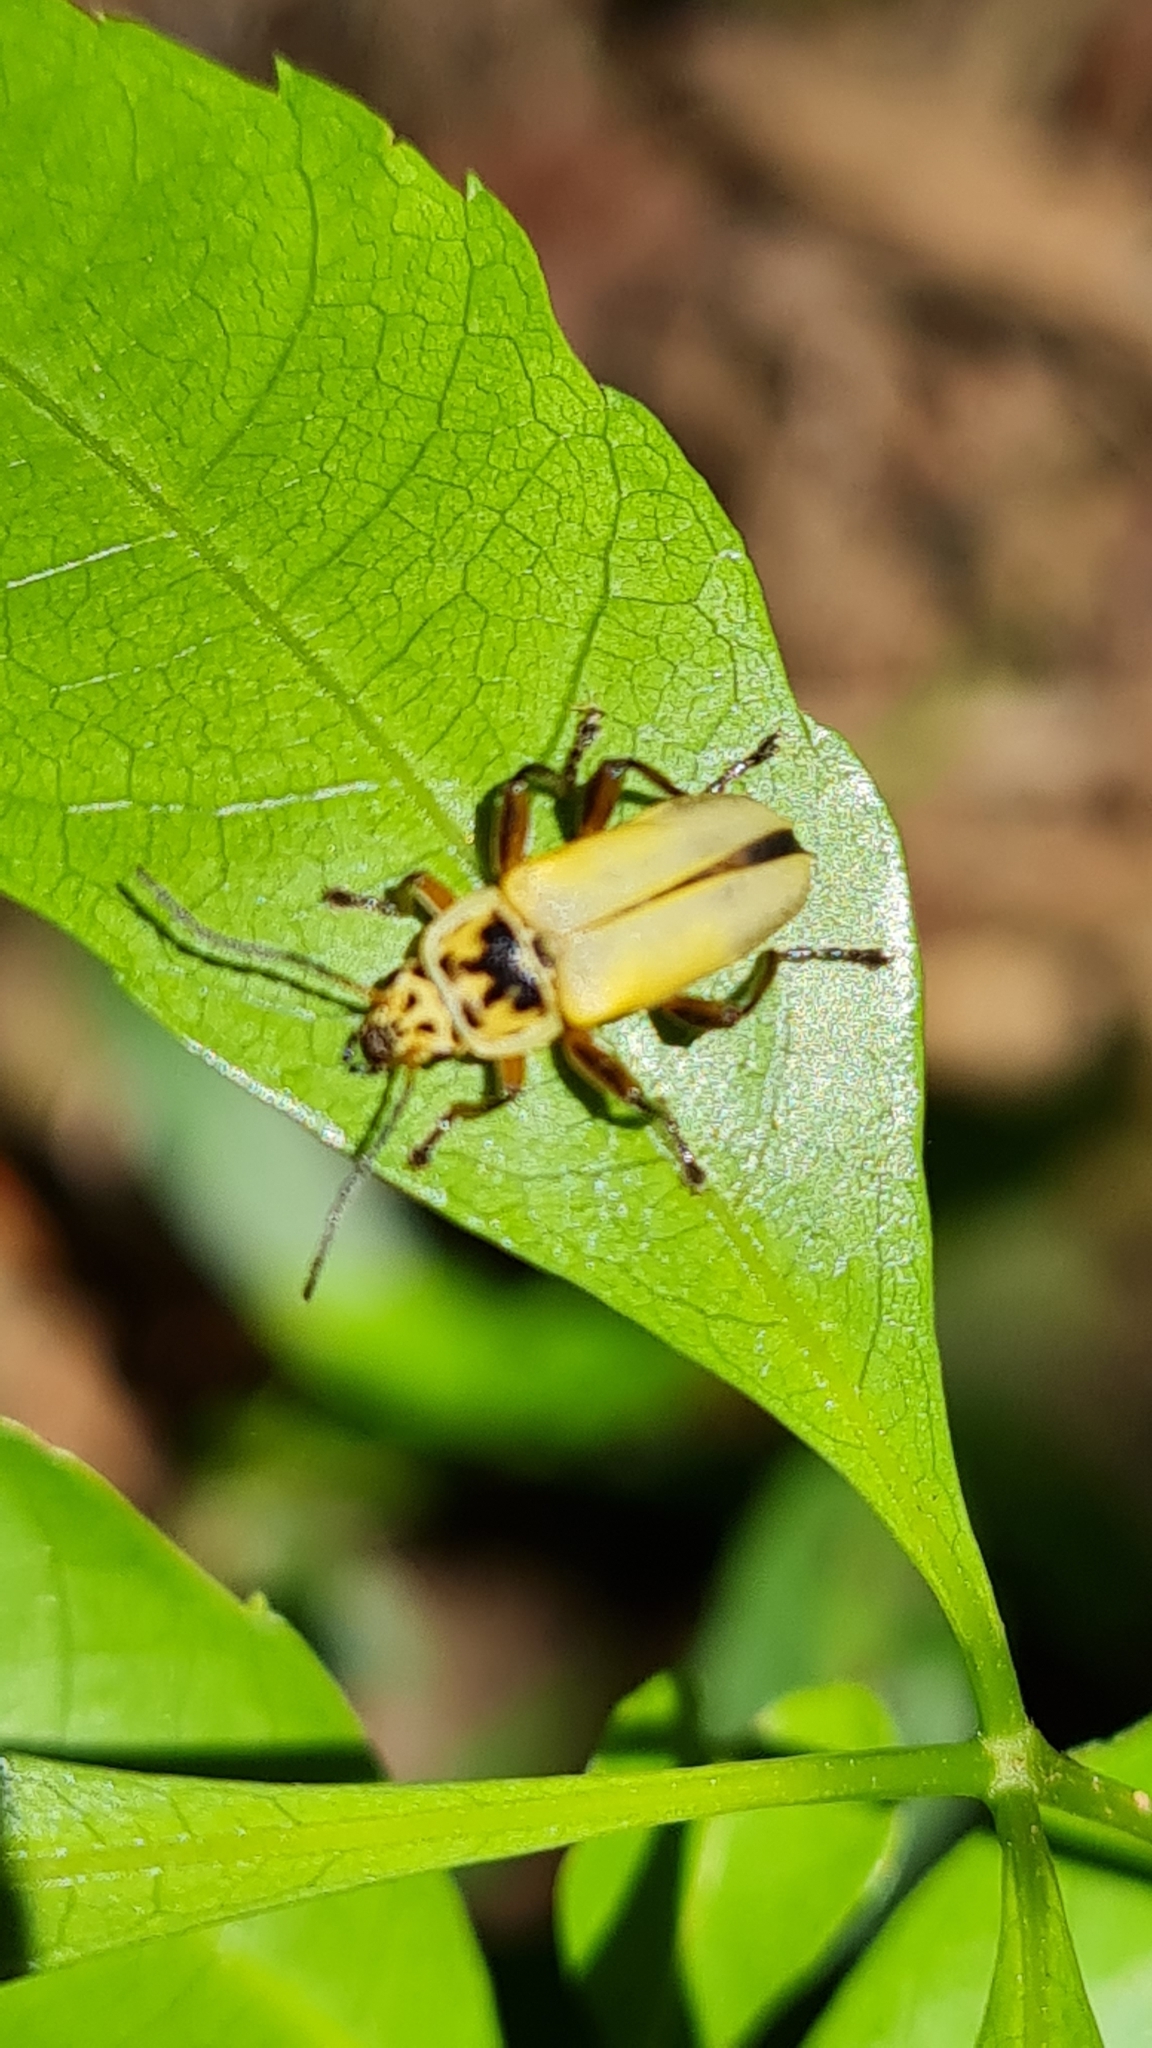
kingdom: Animalia
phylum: Arthropoda
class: Insecta
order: Coleoptera
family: Cantharidae
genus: Chauliognathus
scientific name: Chauliognathus
